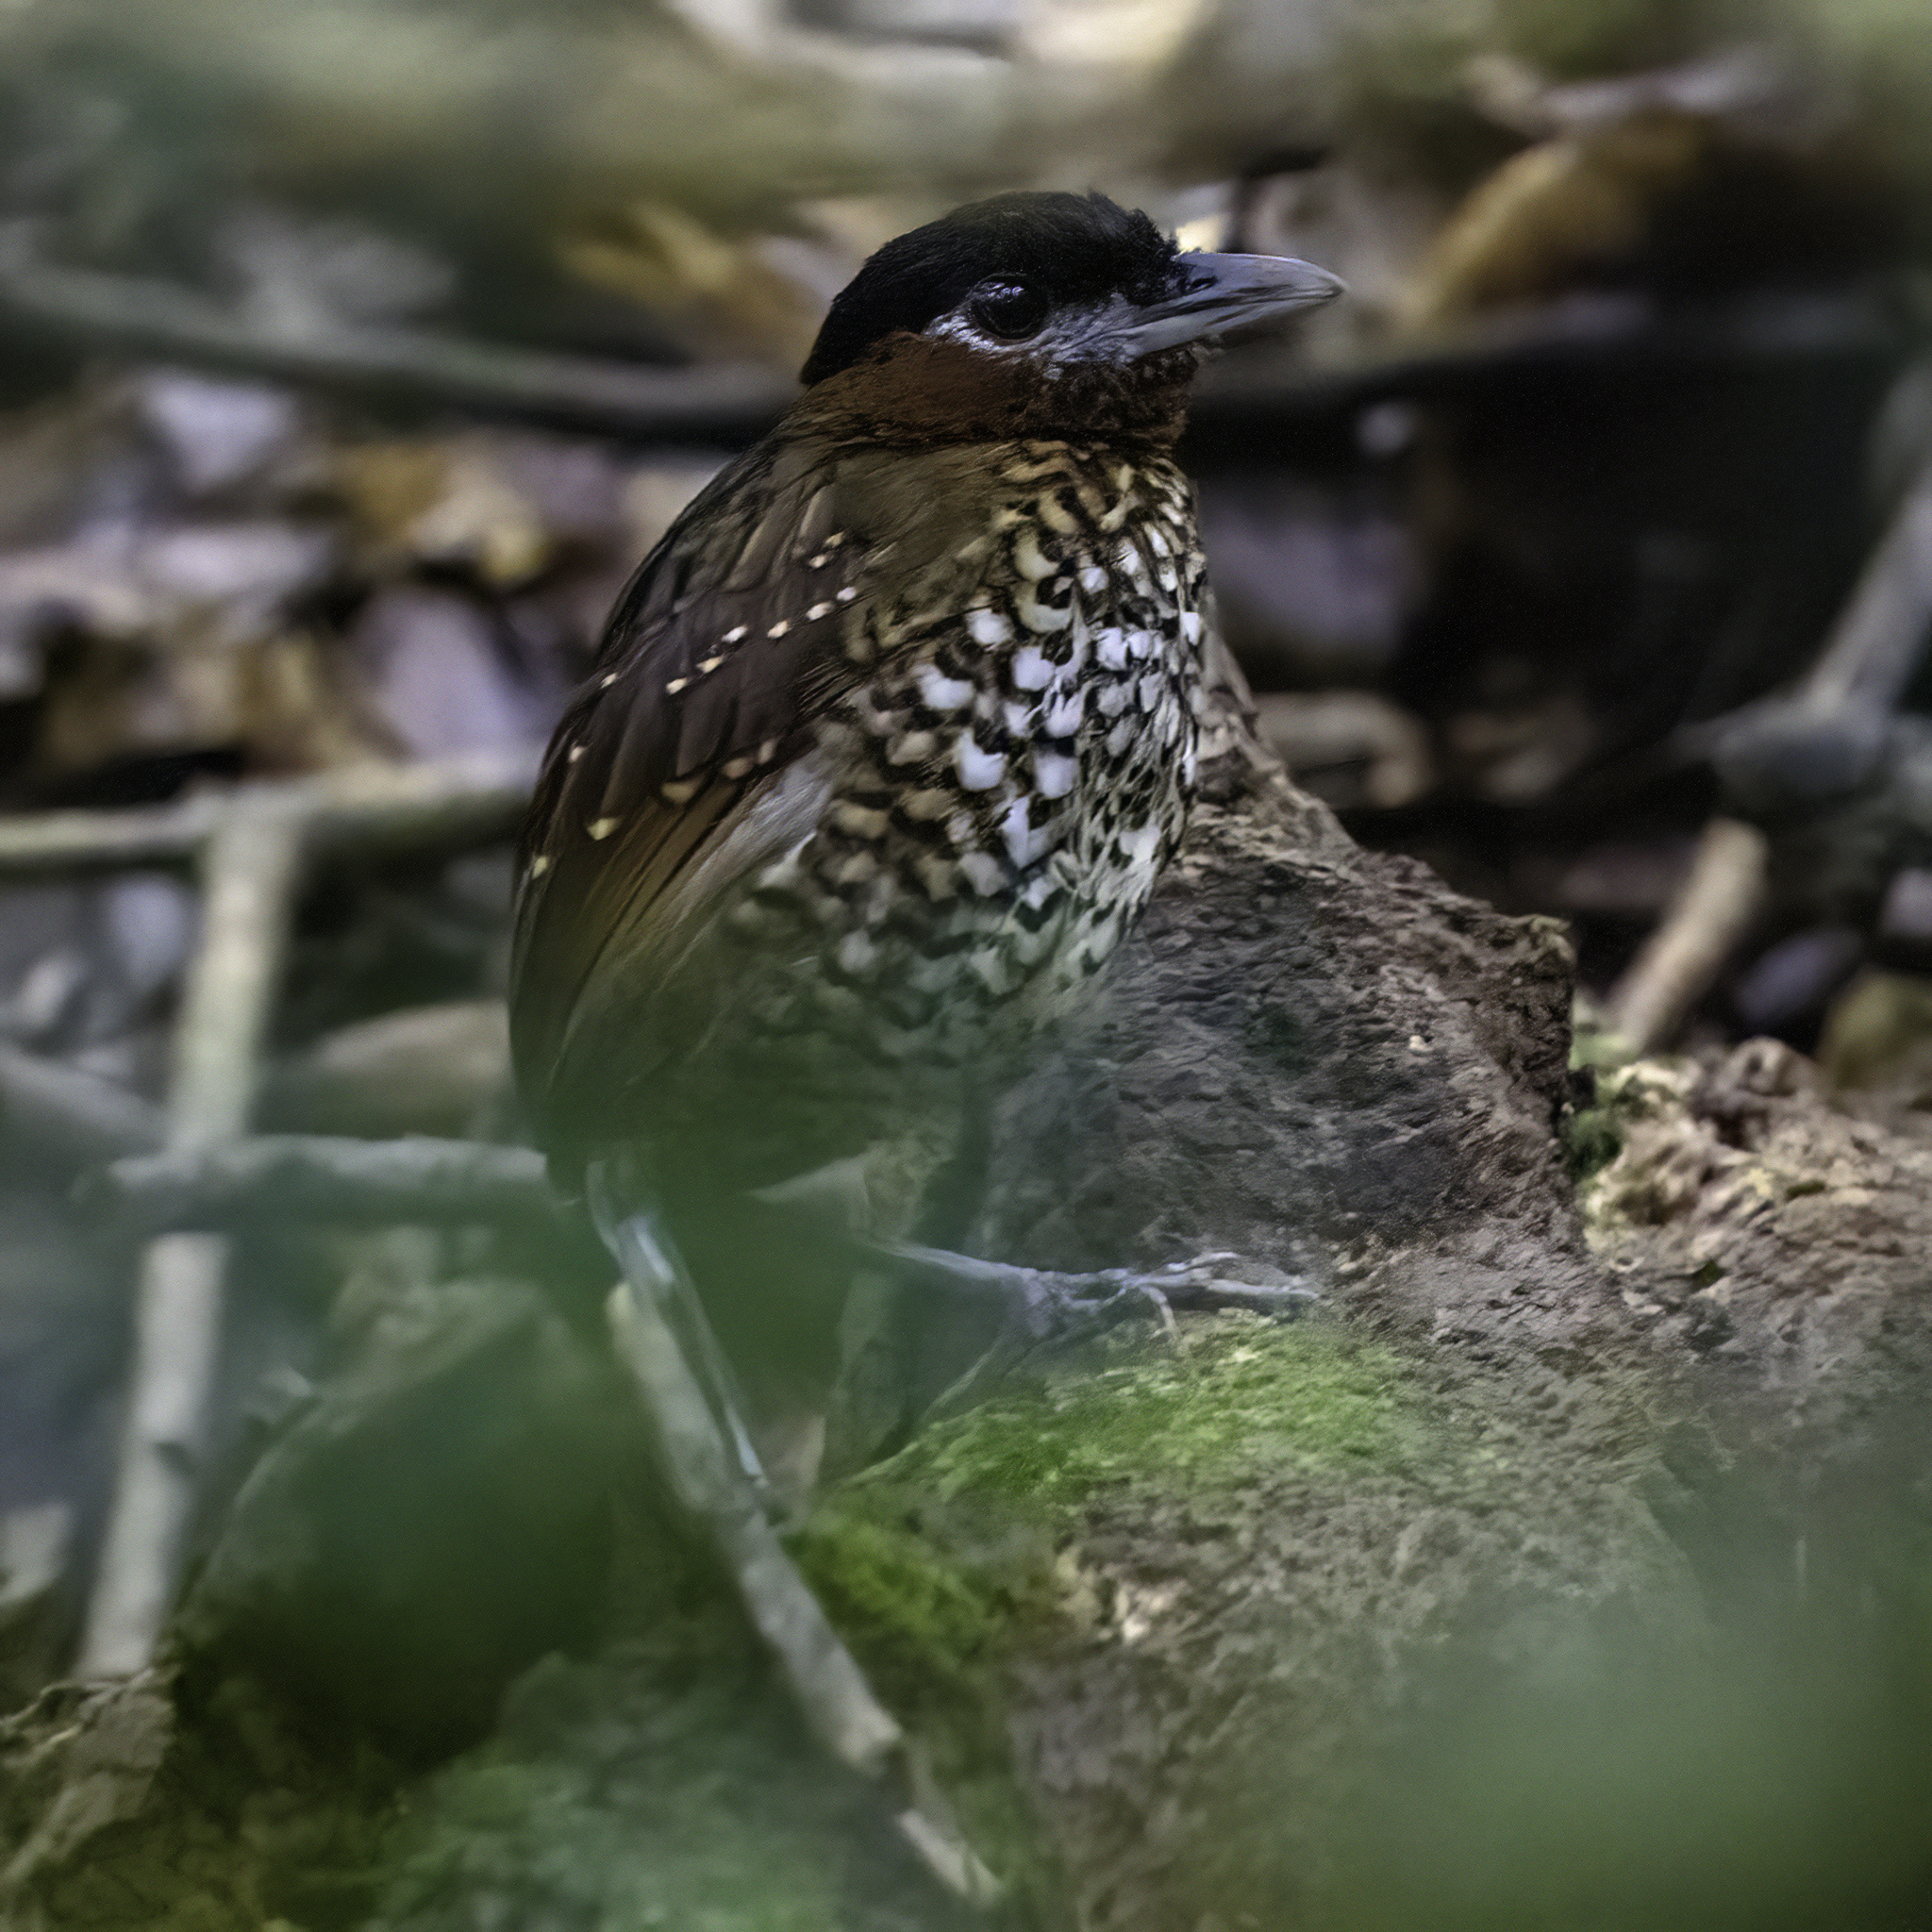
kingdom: Animalia
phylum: Chordata
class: Aves
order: Passeriformes
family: Conopophagidae
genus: Pittasoma
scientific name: Pittasoma michleri
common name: Black-crowned antpitta
